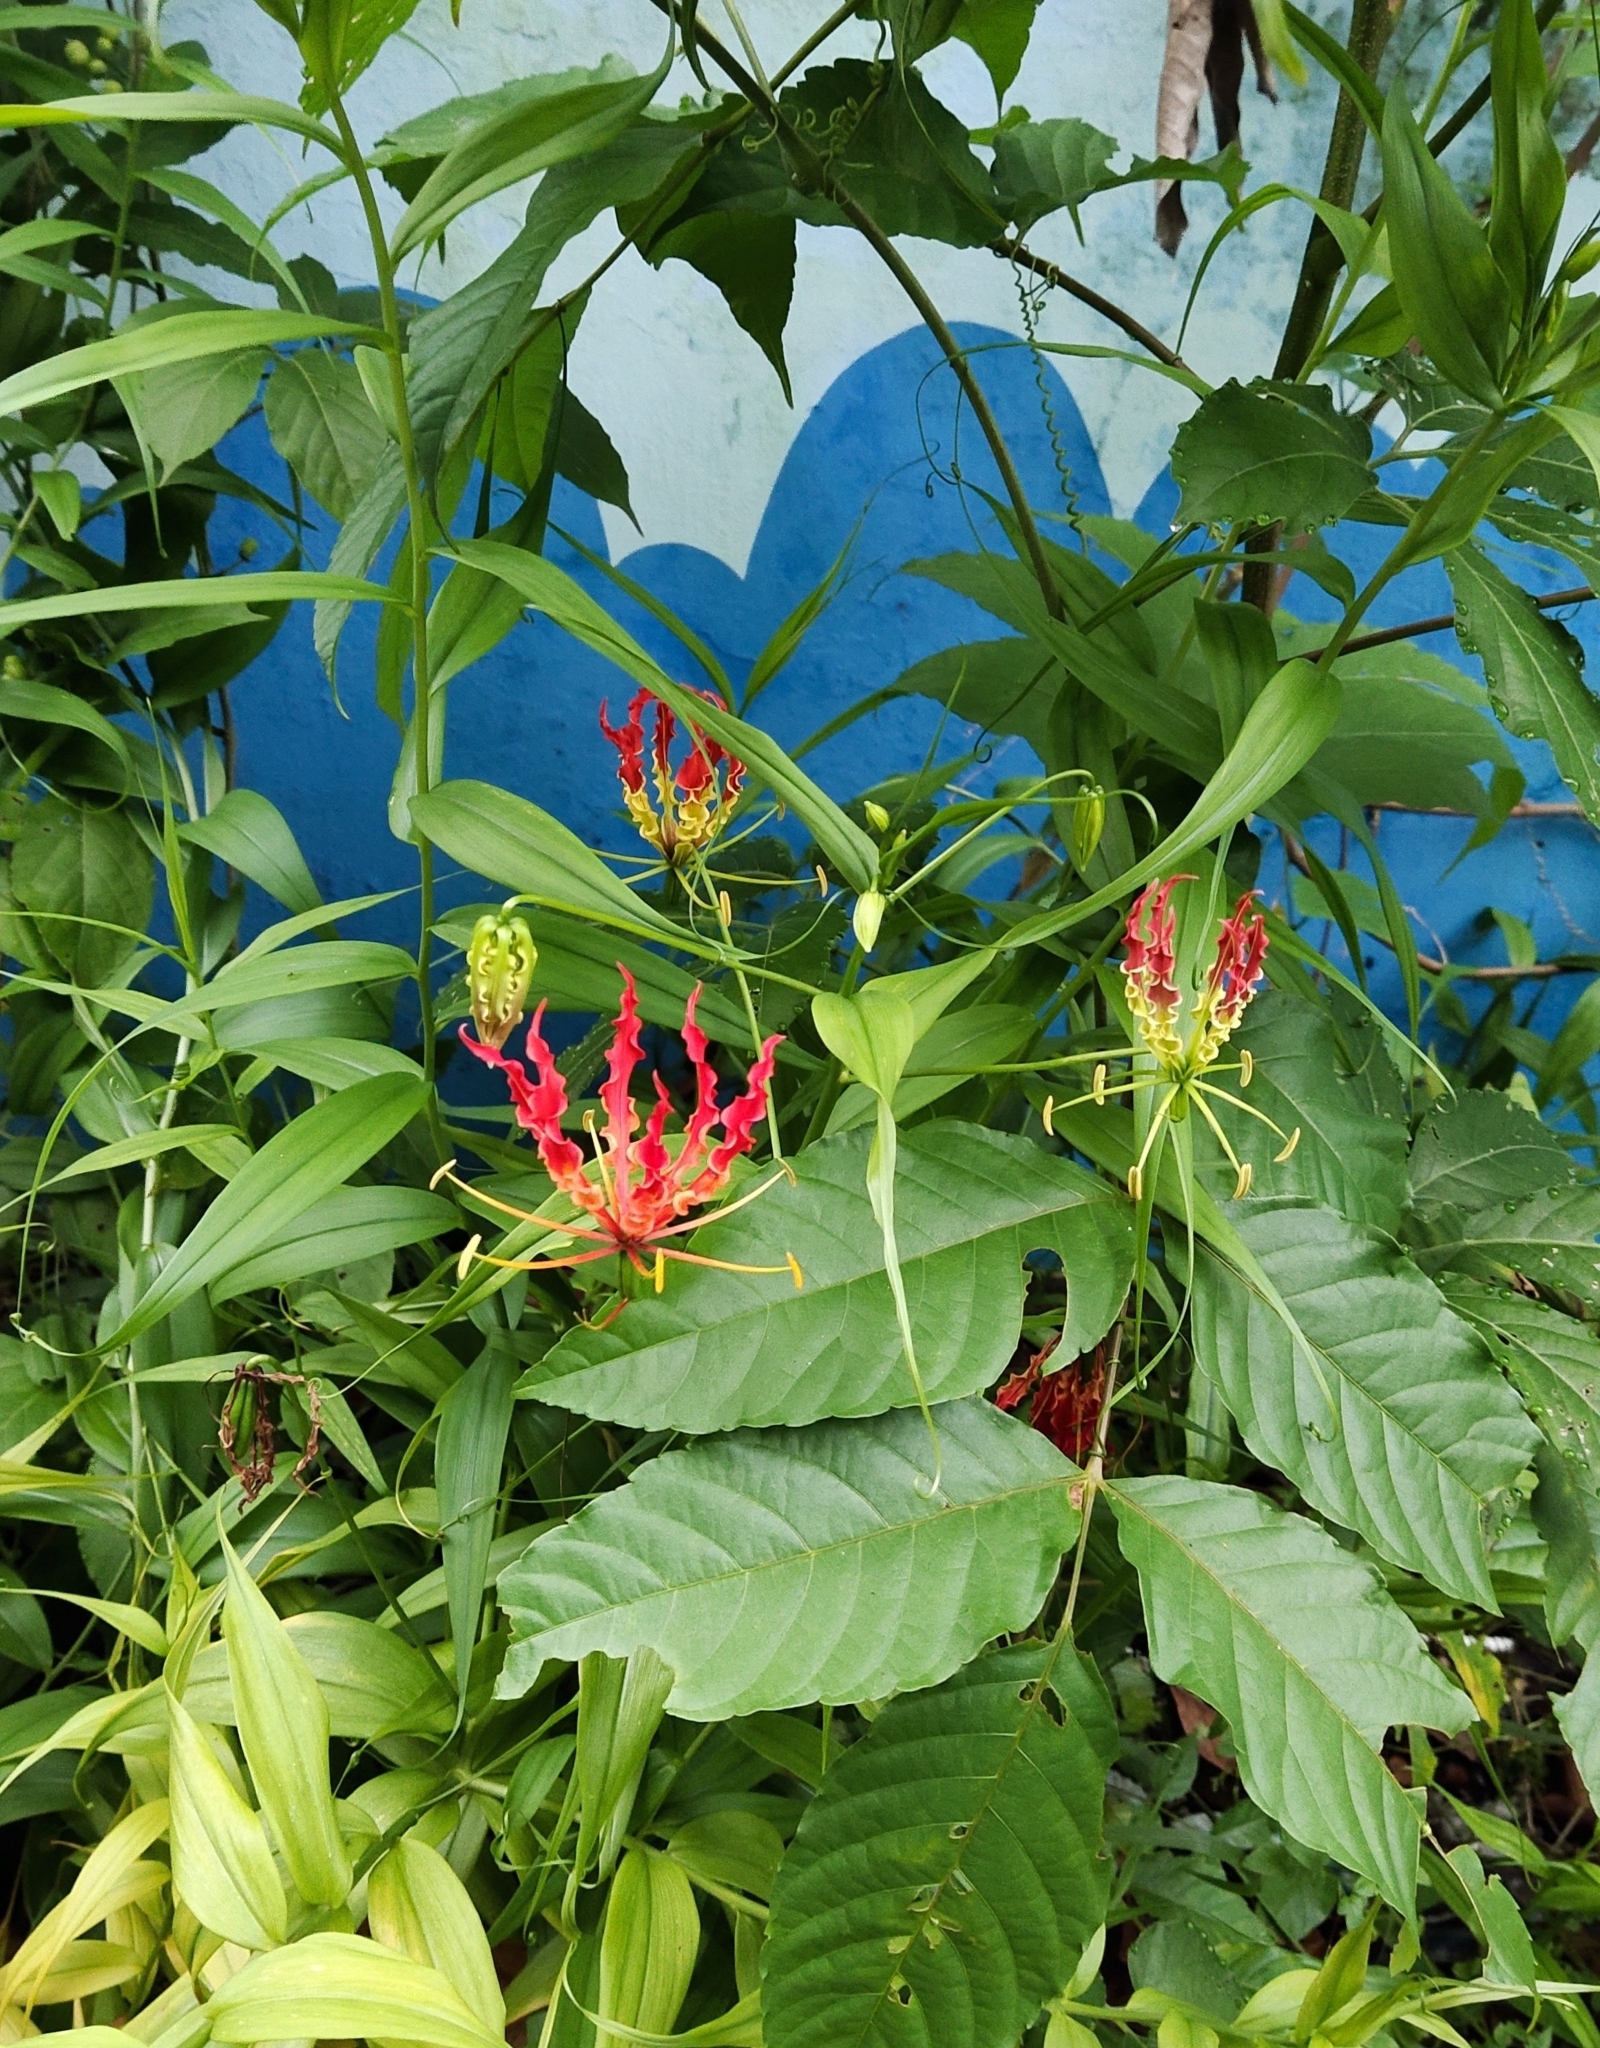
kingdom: Plantae
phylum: Tracheophyta
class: Liliopsida
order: Liliales
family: Colchicaceae
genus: Gloriosa
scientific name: Gloriosa superba
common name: Flame lily
